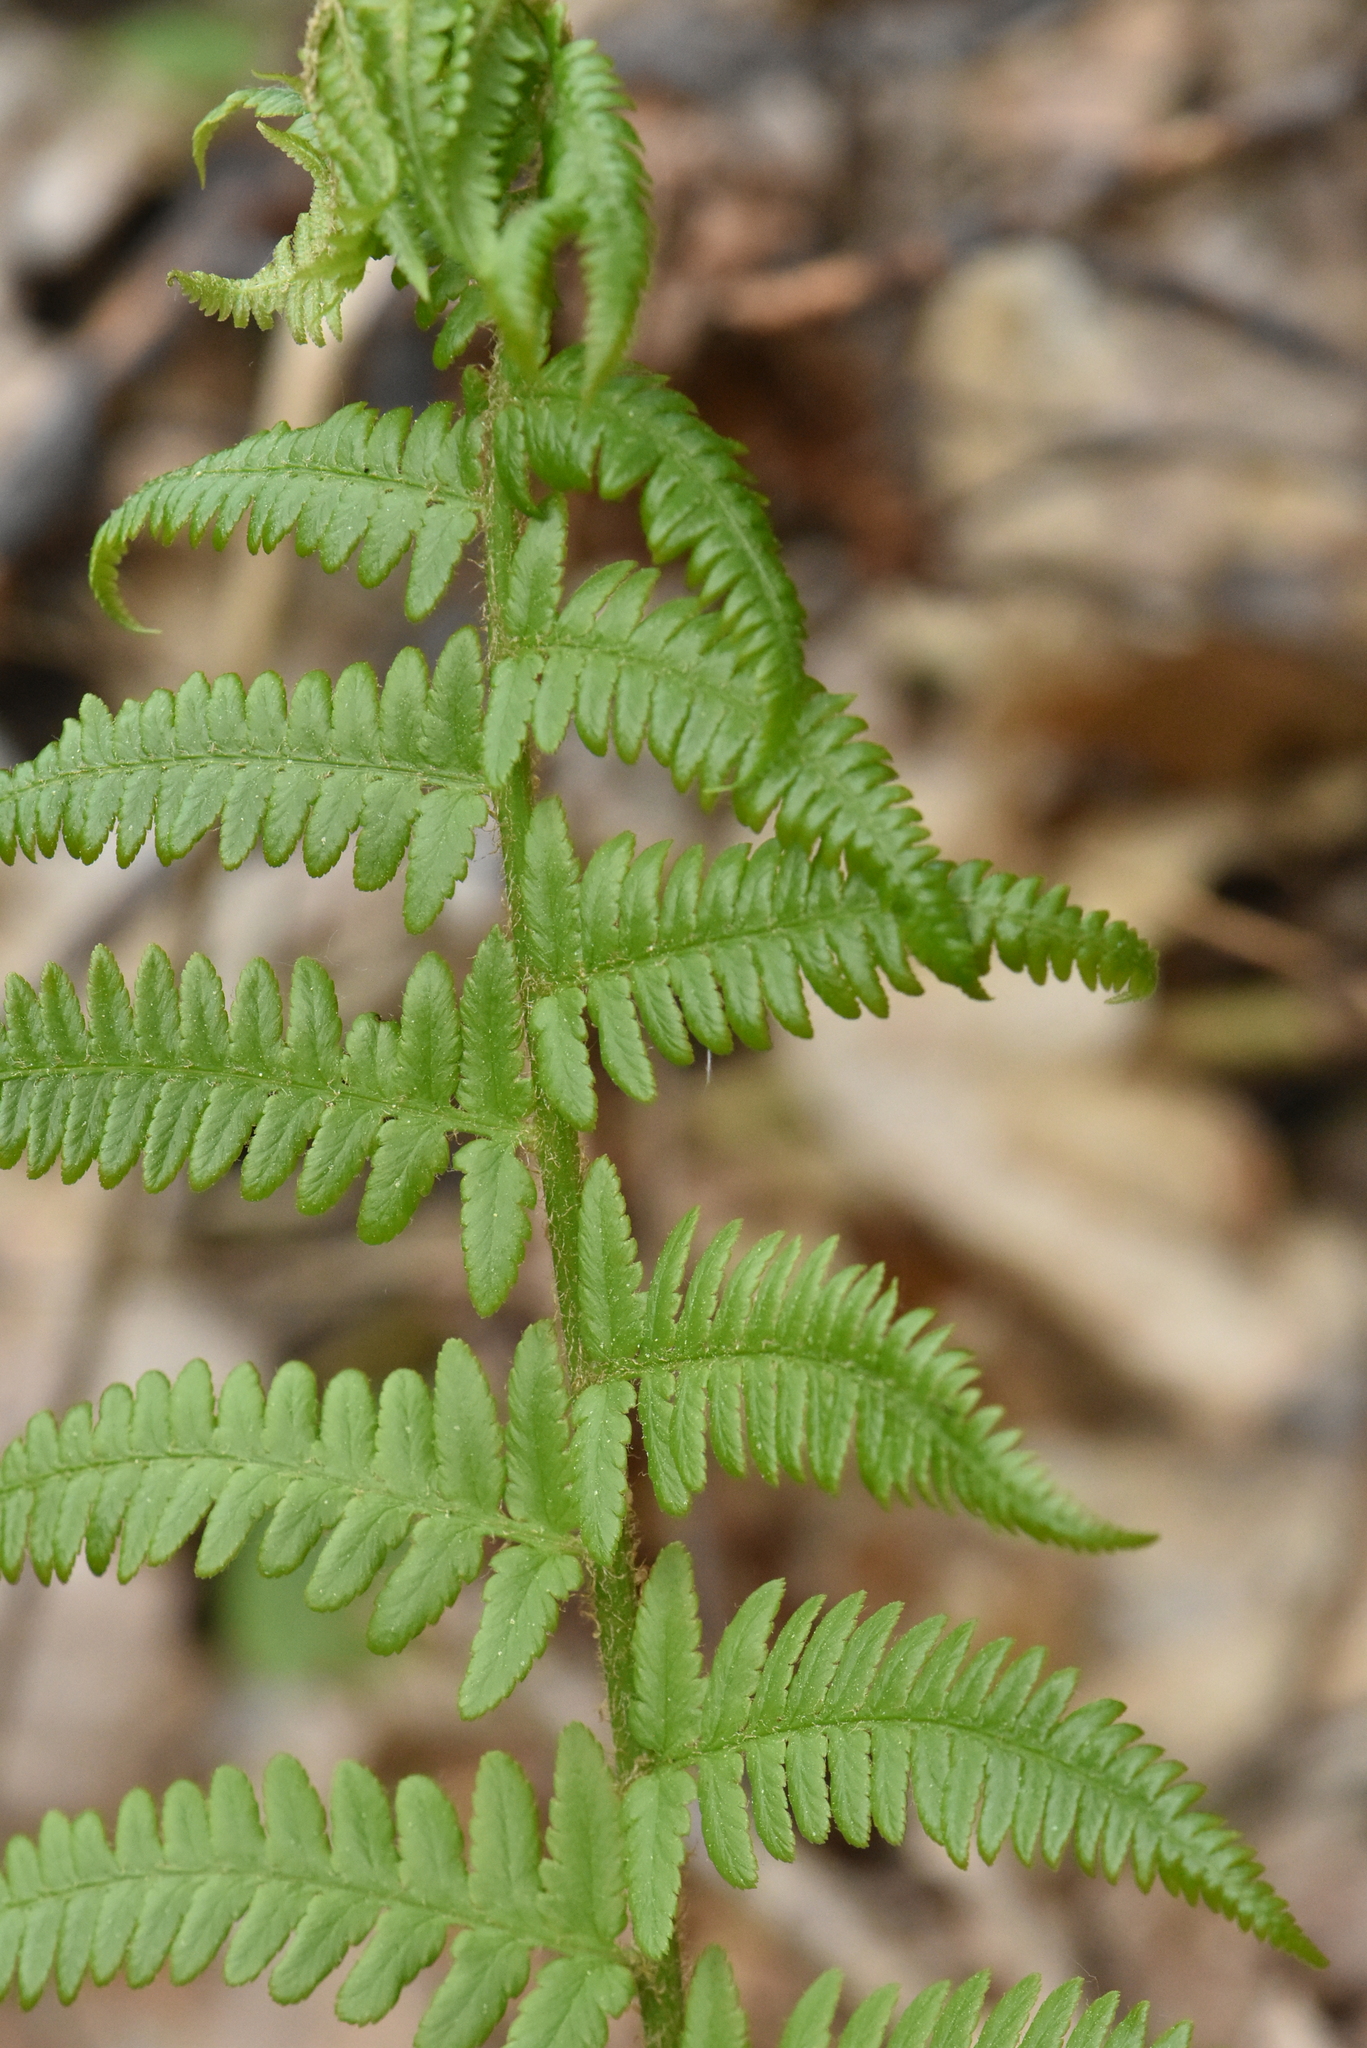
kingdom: Plantae
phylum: Tracheophyta
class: Polypodiopsida
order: Polypodiales
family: Dryopteridaceae
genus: Dryopteris
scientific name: Dryopteris filix-mas
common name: Male fern
